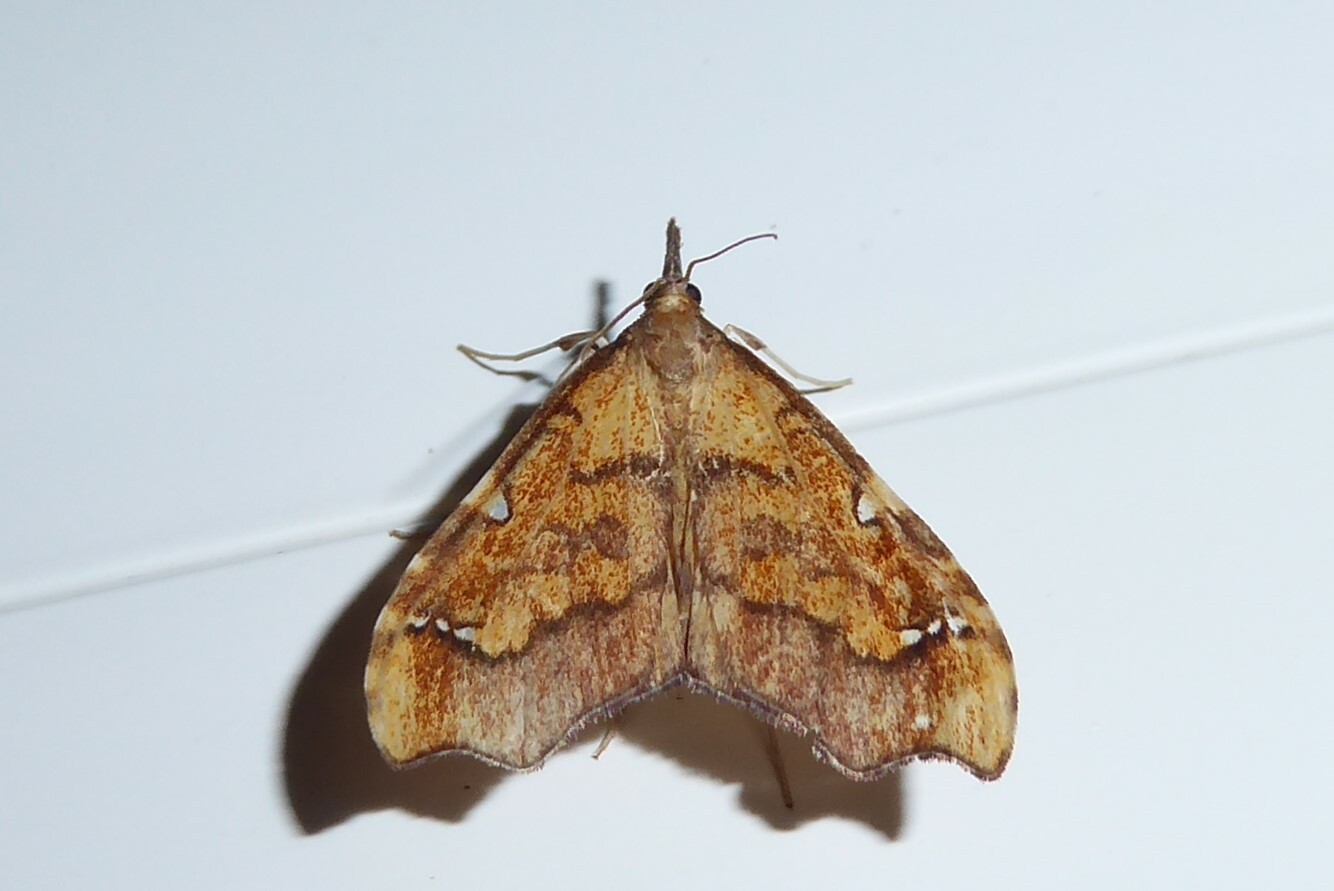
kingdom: Animalia
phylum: Arthropoda
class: Insecta
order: Lepidoptera
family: Crambidae
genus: Deana
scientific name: Deana hybreasalis
